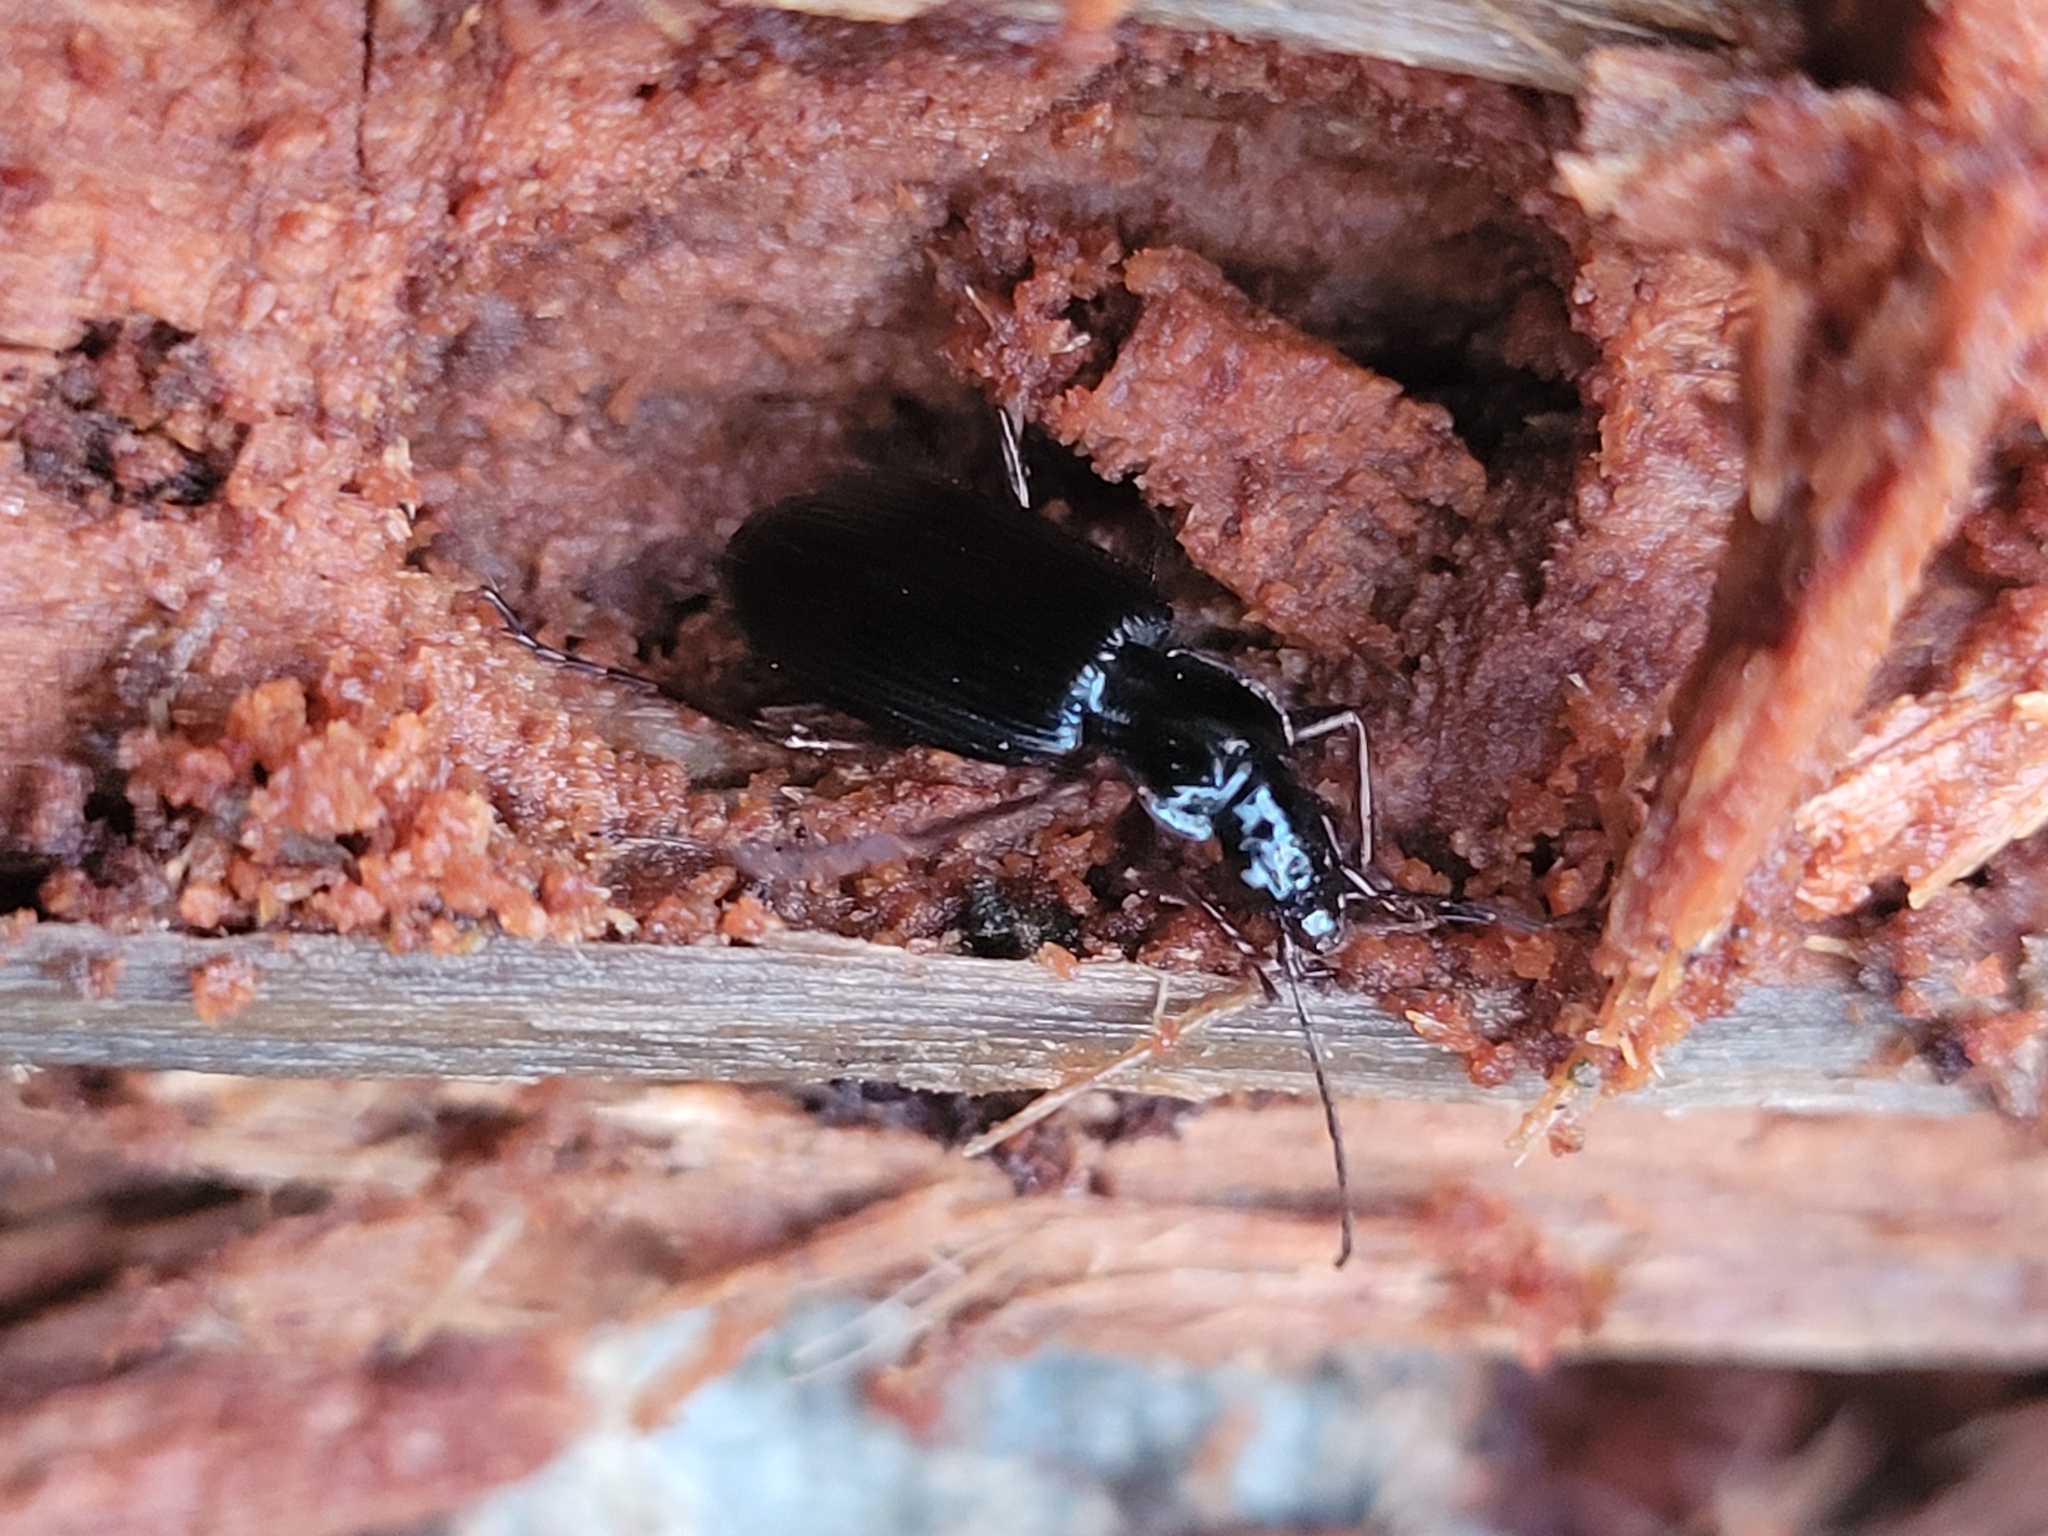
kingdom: Animalia
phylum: Arthropoda
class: Insecta
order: Coleoptera
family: Carabidae
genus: Platynus
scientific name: Platynus assimilis
